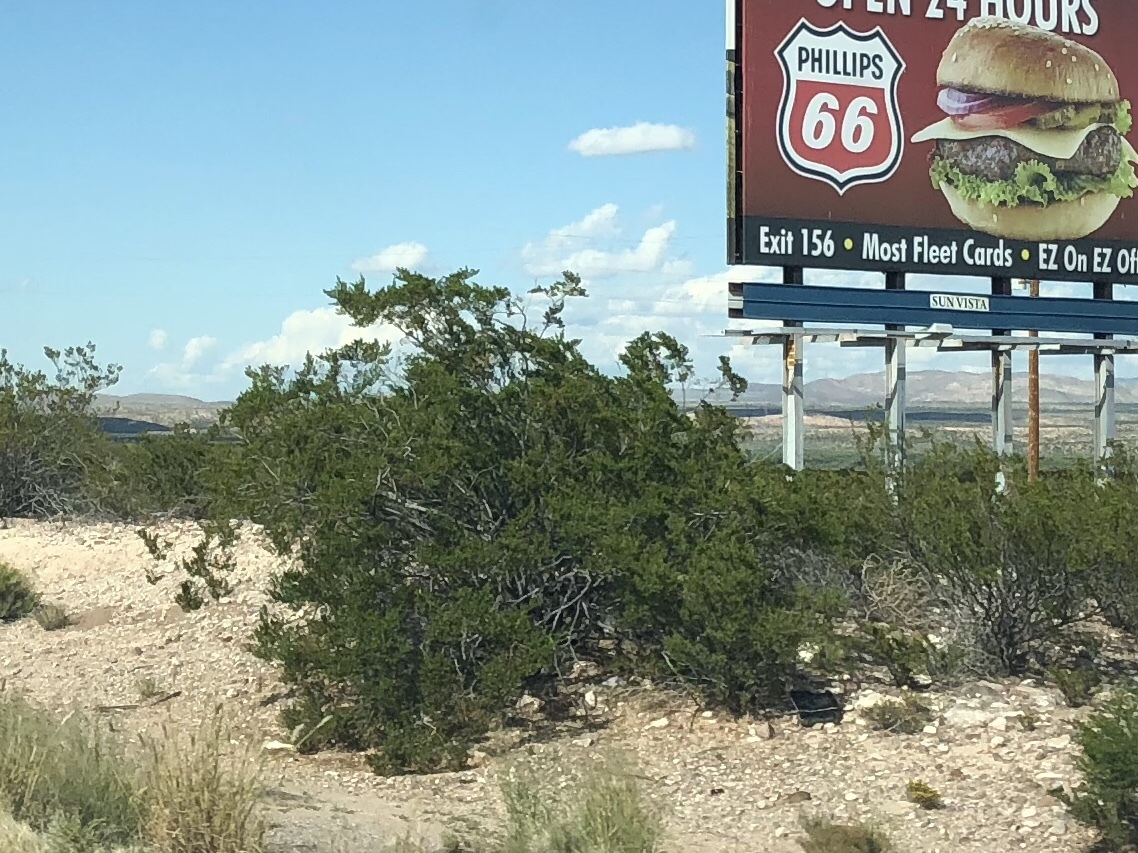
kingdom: Plantae
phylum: Tracheophyta
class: Magnoliopsida
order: Zygophyllales
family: Zygophyllaceae
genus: Larrea
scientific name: Larrea tridentata
